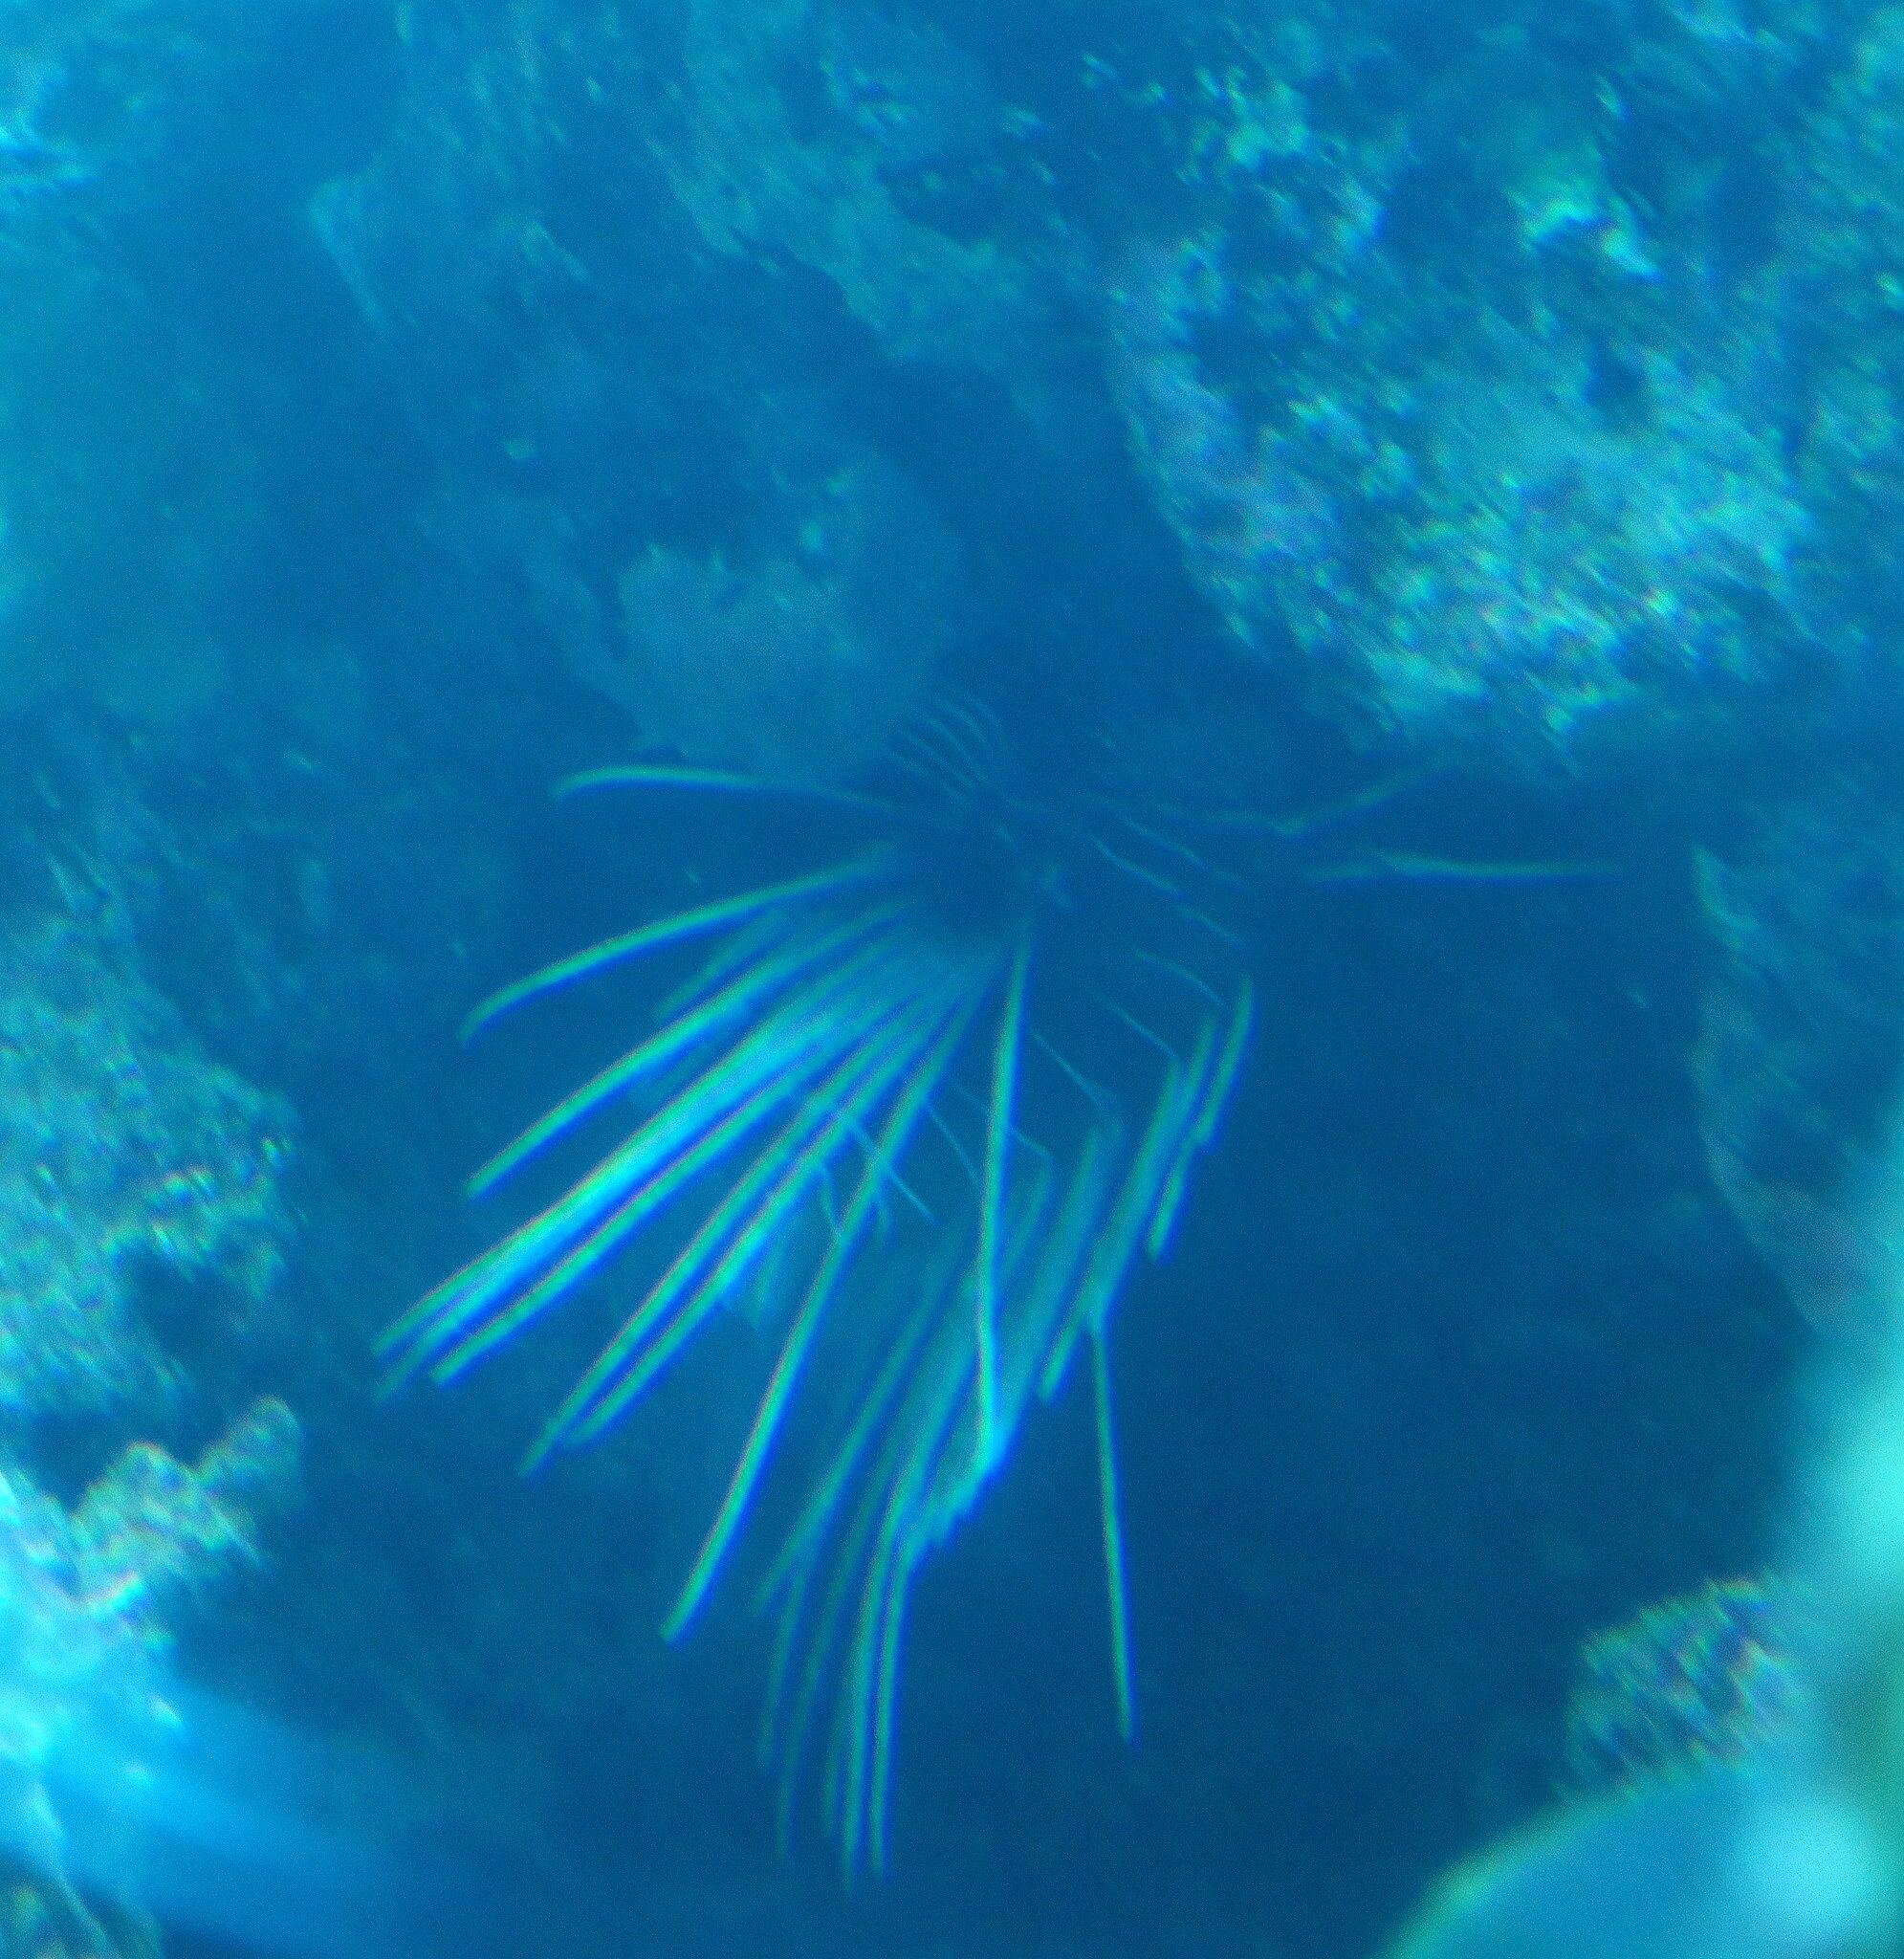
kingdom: Animalia
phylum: Chordata
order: Scorpaeniformes
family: Scorpaenidae
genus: Pterois
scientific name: Pterois cincta
